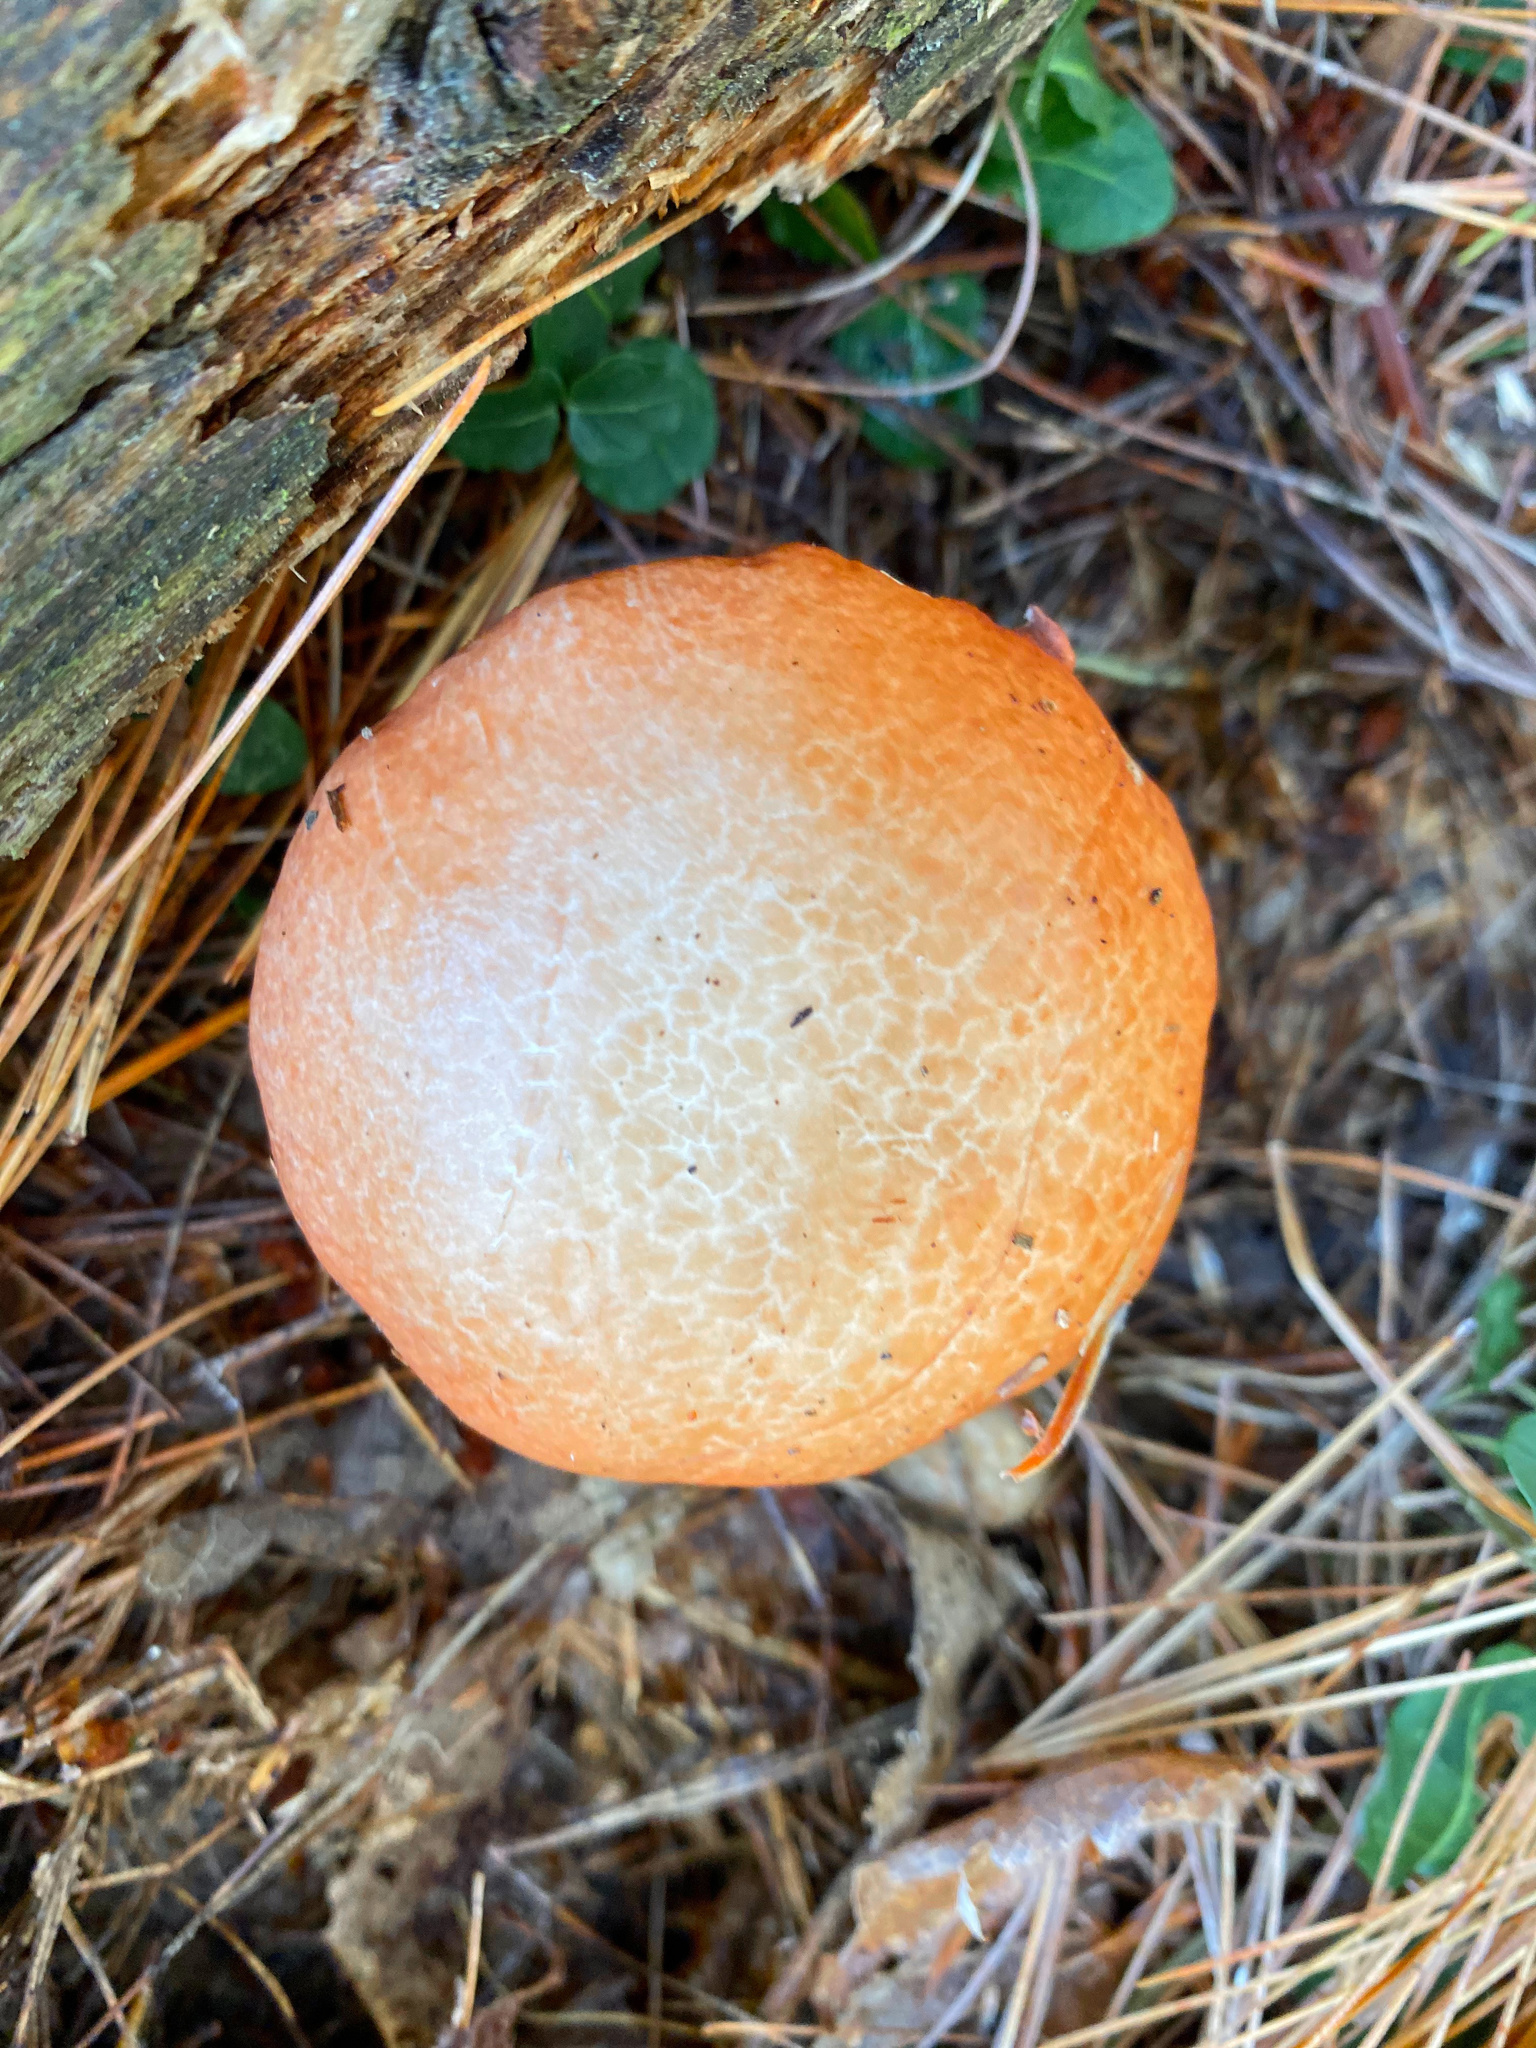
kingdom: Fungi
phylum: Basidiomycota
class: Agaricomycetes
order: Boletales
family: Suillaceae
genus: Suillus
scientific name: Suillus granulatus
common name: Weeping bolete
